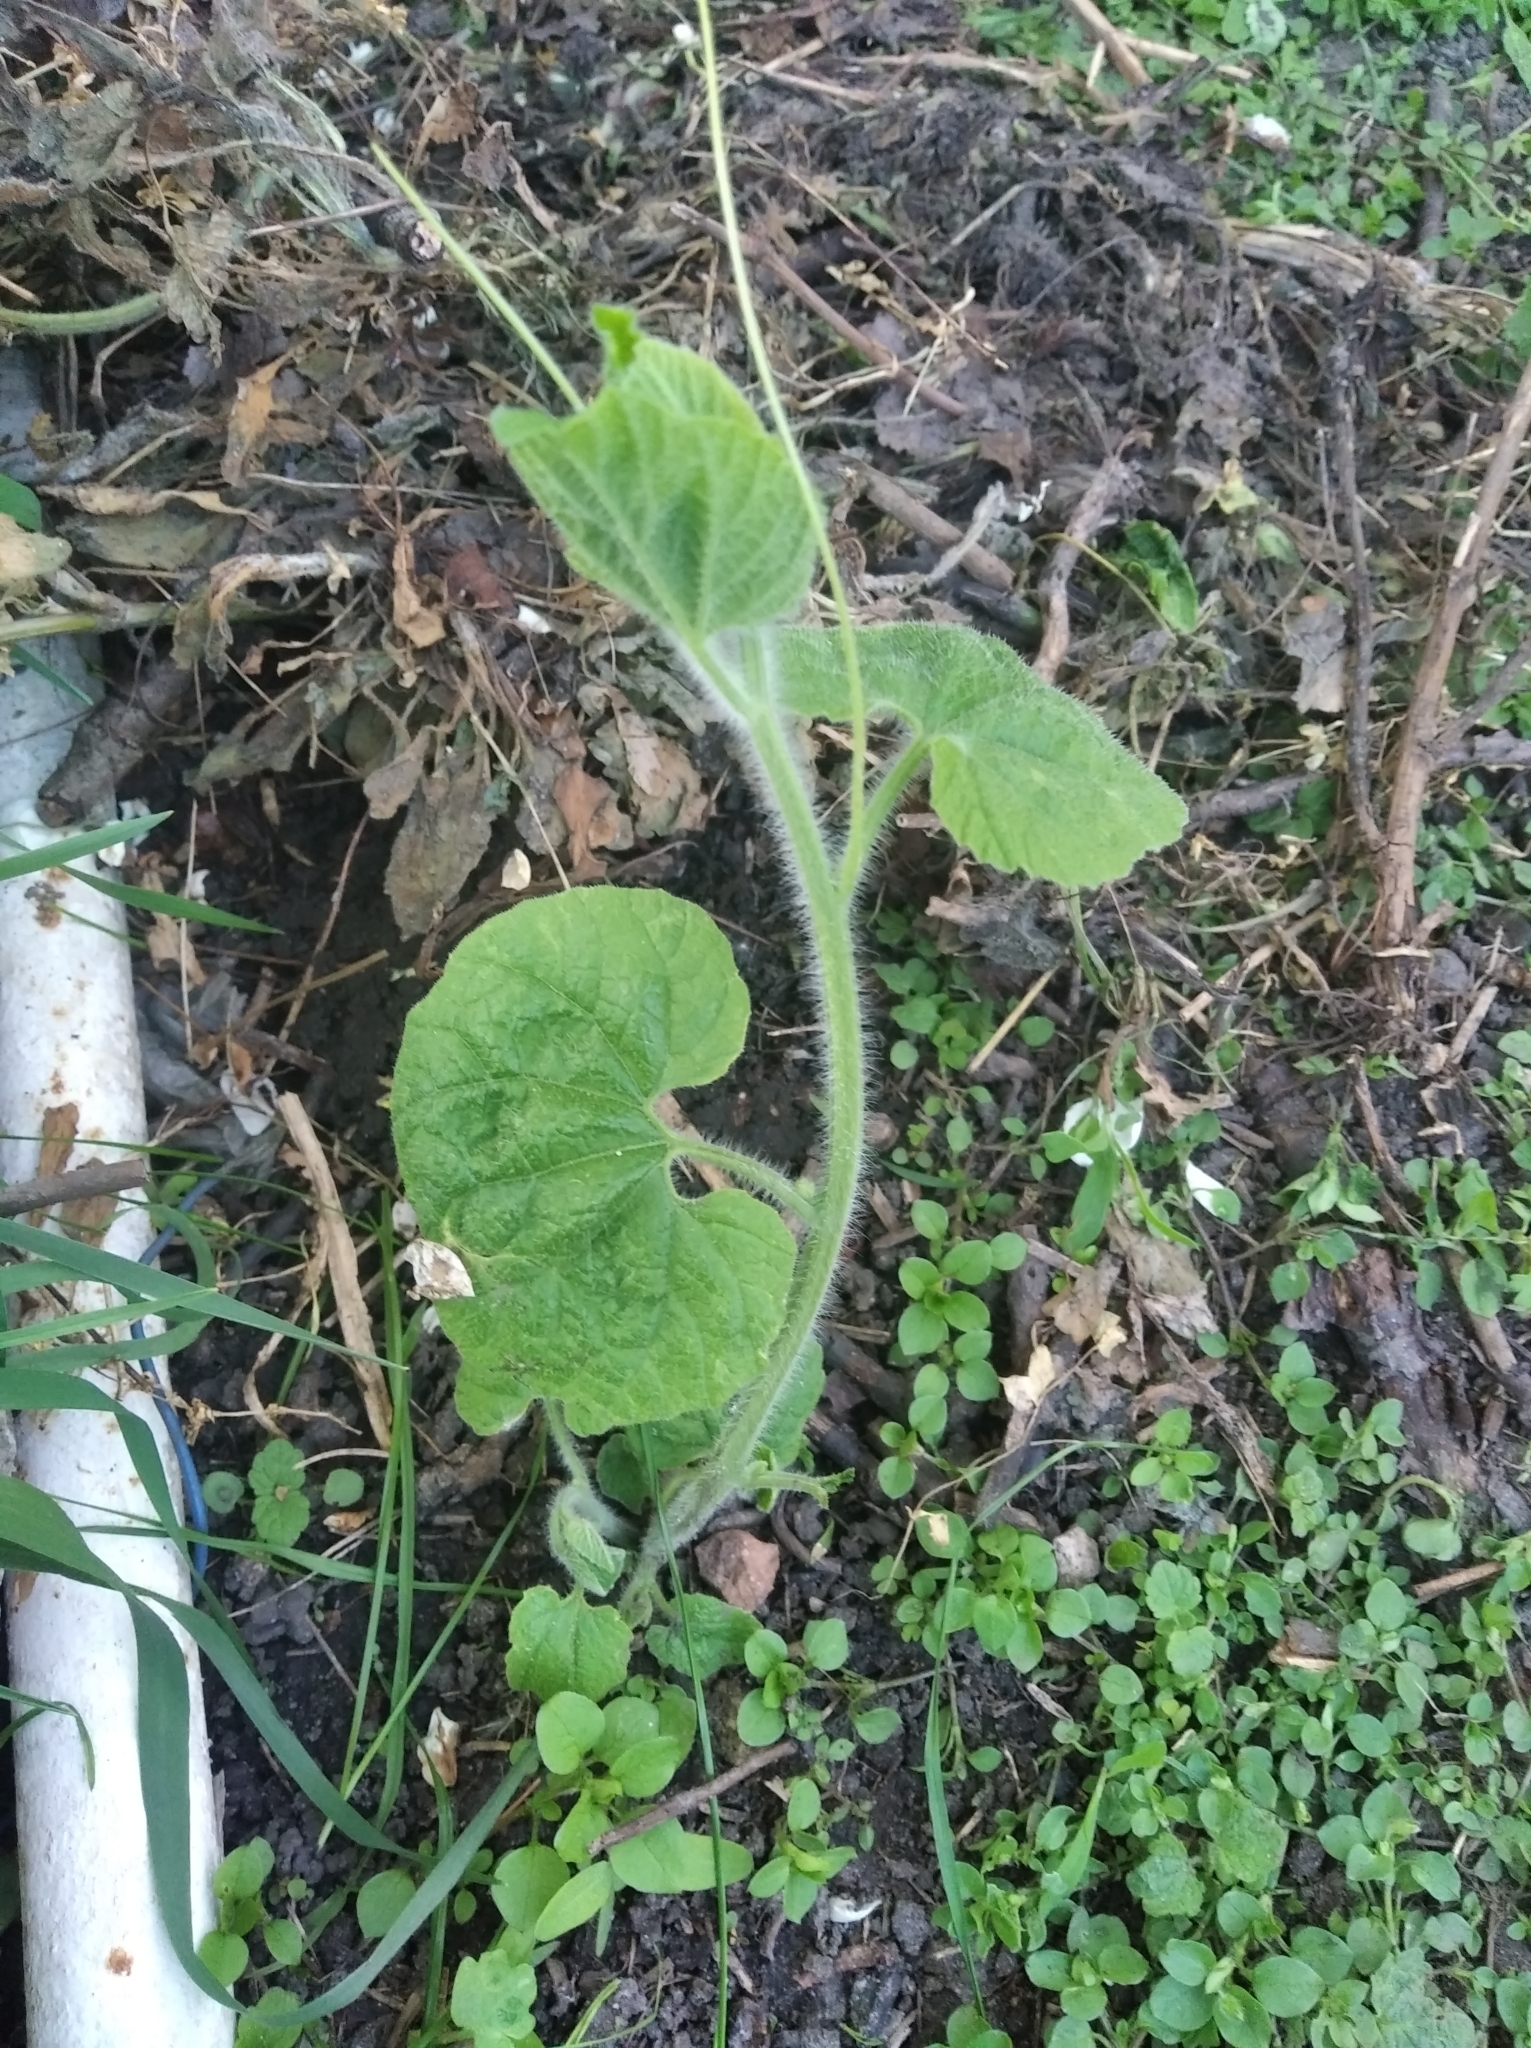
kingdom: Plantae
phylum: Tracheophyta
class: Magnoliopsida
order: Cucurbitales
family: Cucurbitaceae
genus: Thladiantha
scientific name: Thladiantha dubia
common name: Manchu tubergourd
